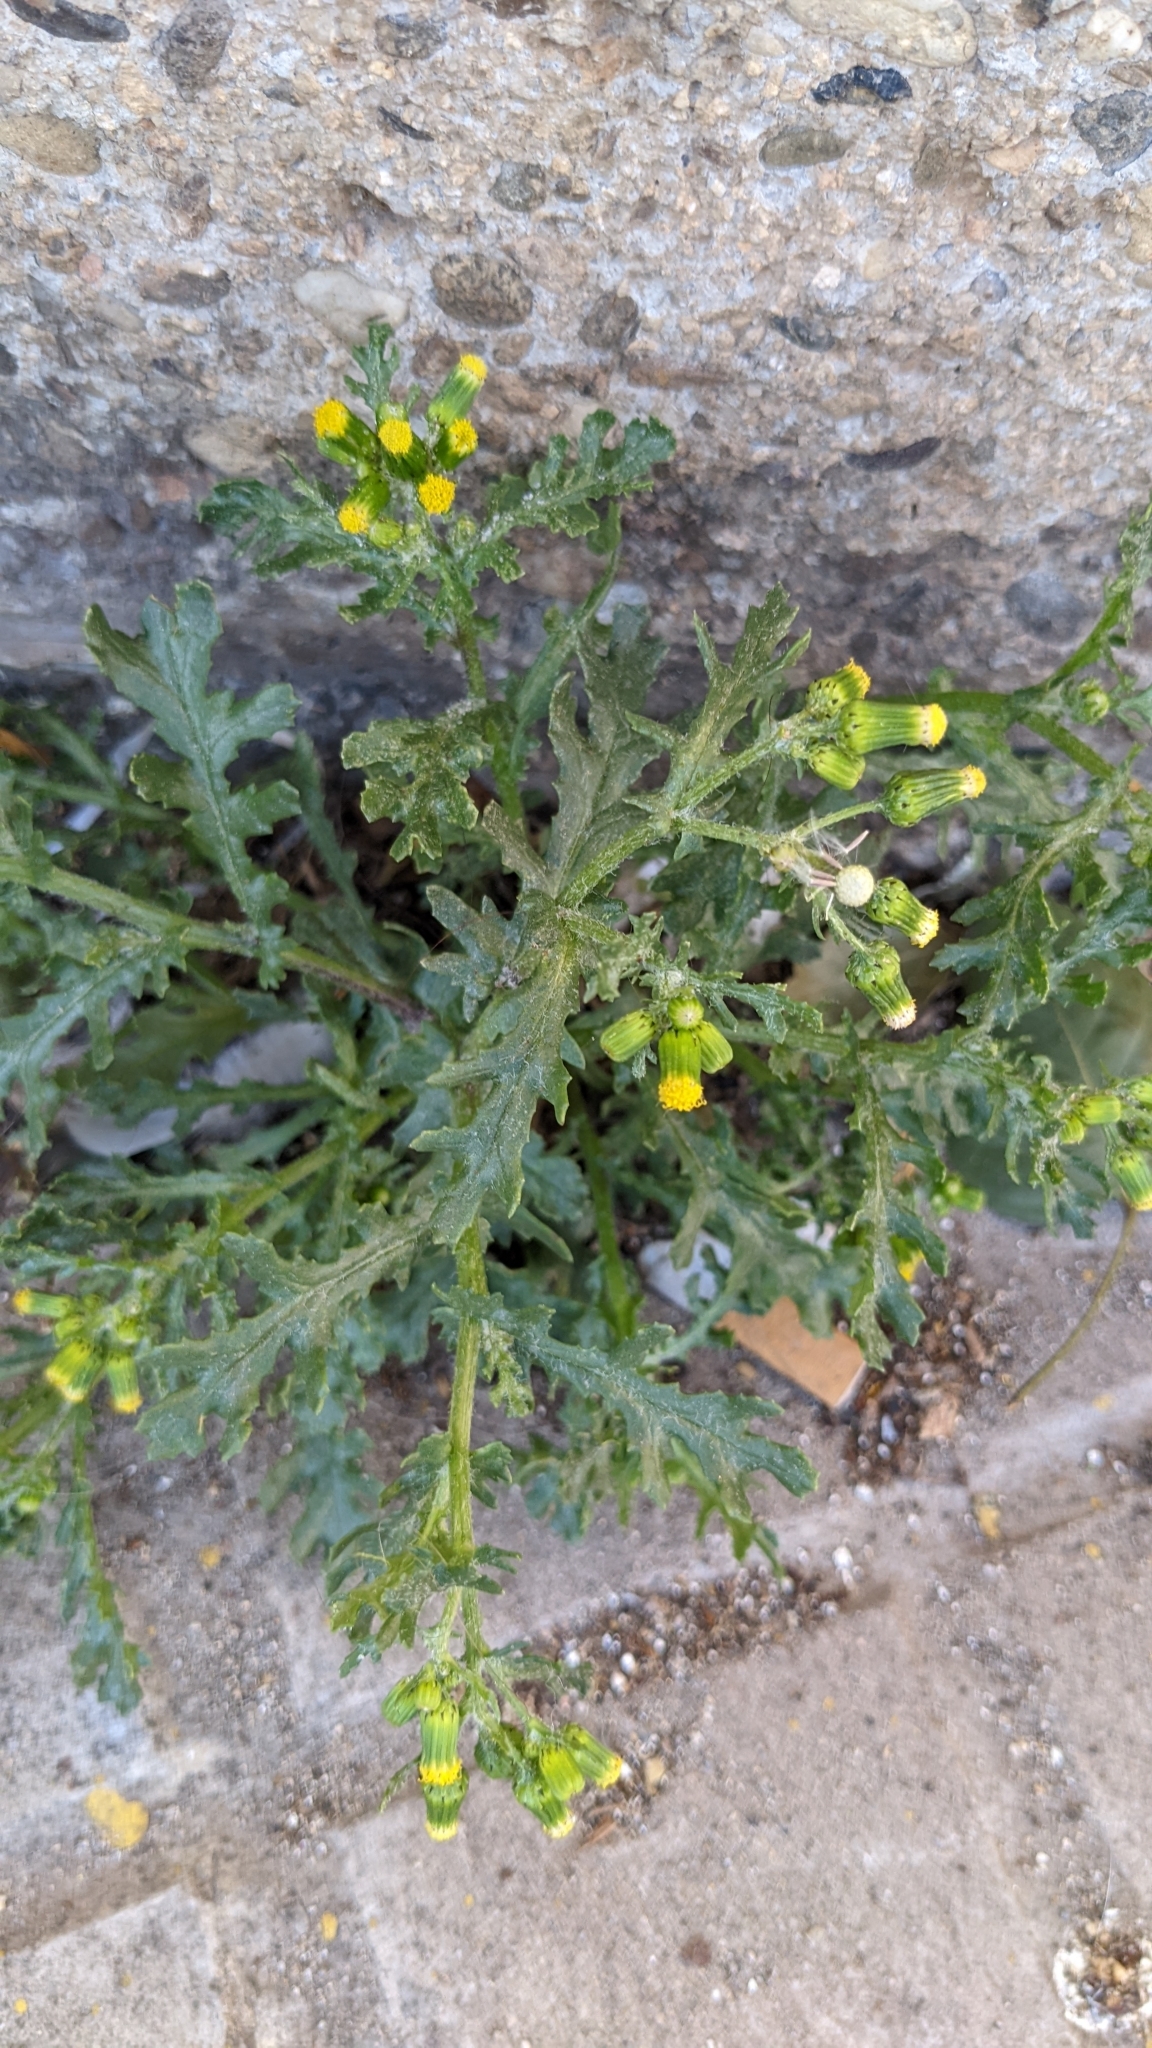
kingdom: Plantae
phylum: Tracheophyta
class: Magnoliopsida
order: Asterales
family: Asteraceae
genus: Senecio
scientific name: Senecio vulgaris
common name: Old-man-in-the-spring
